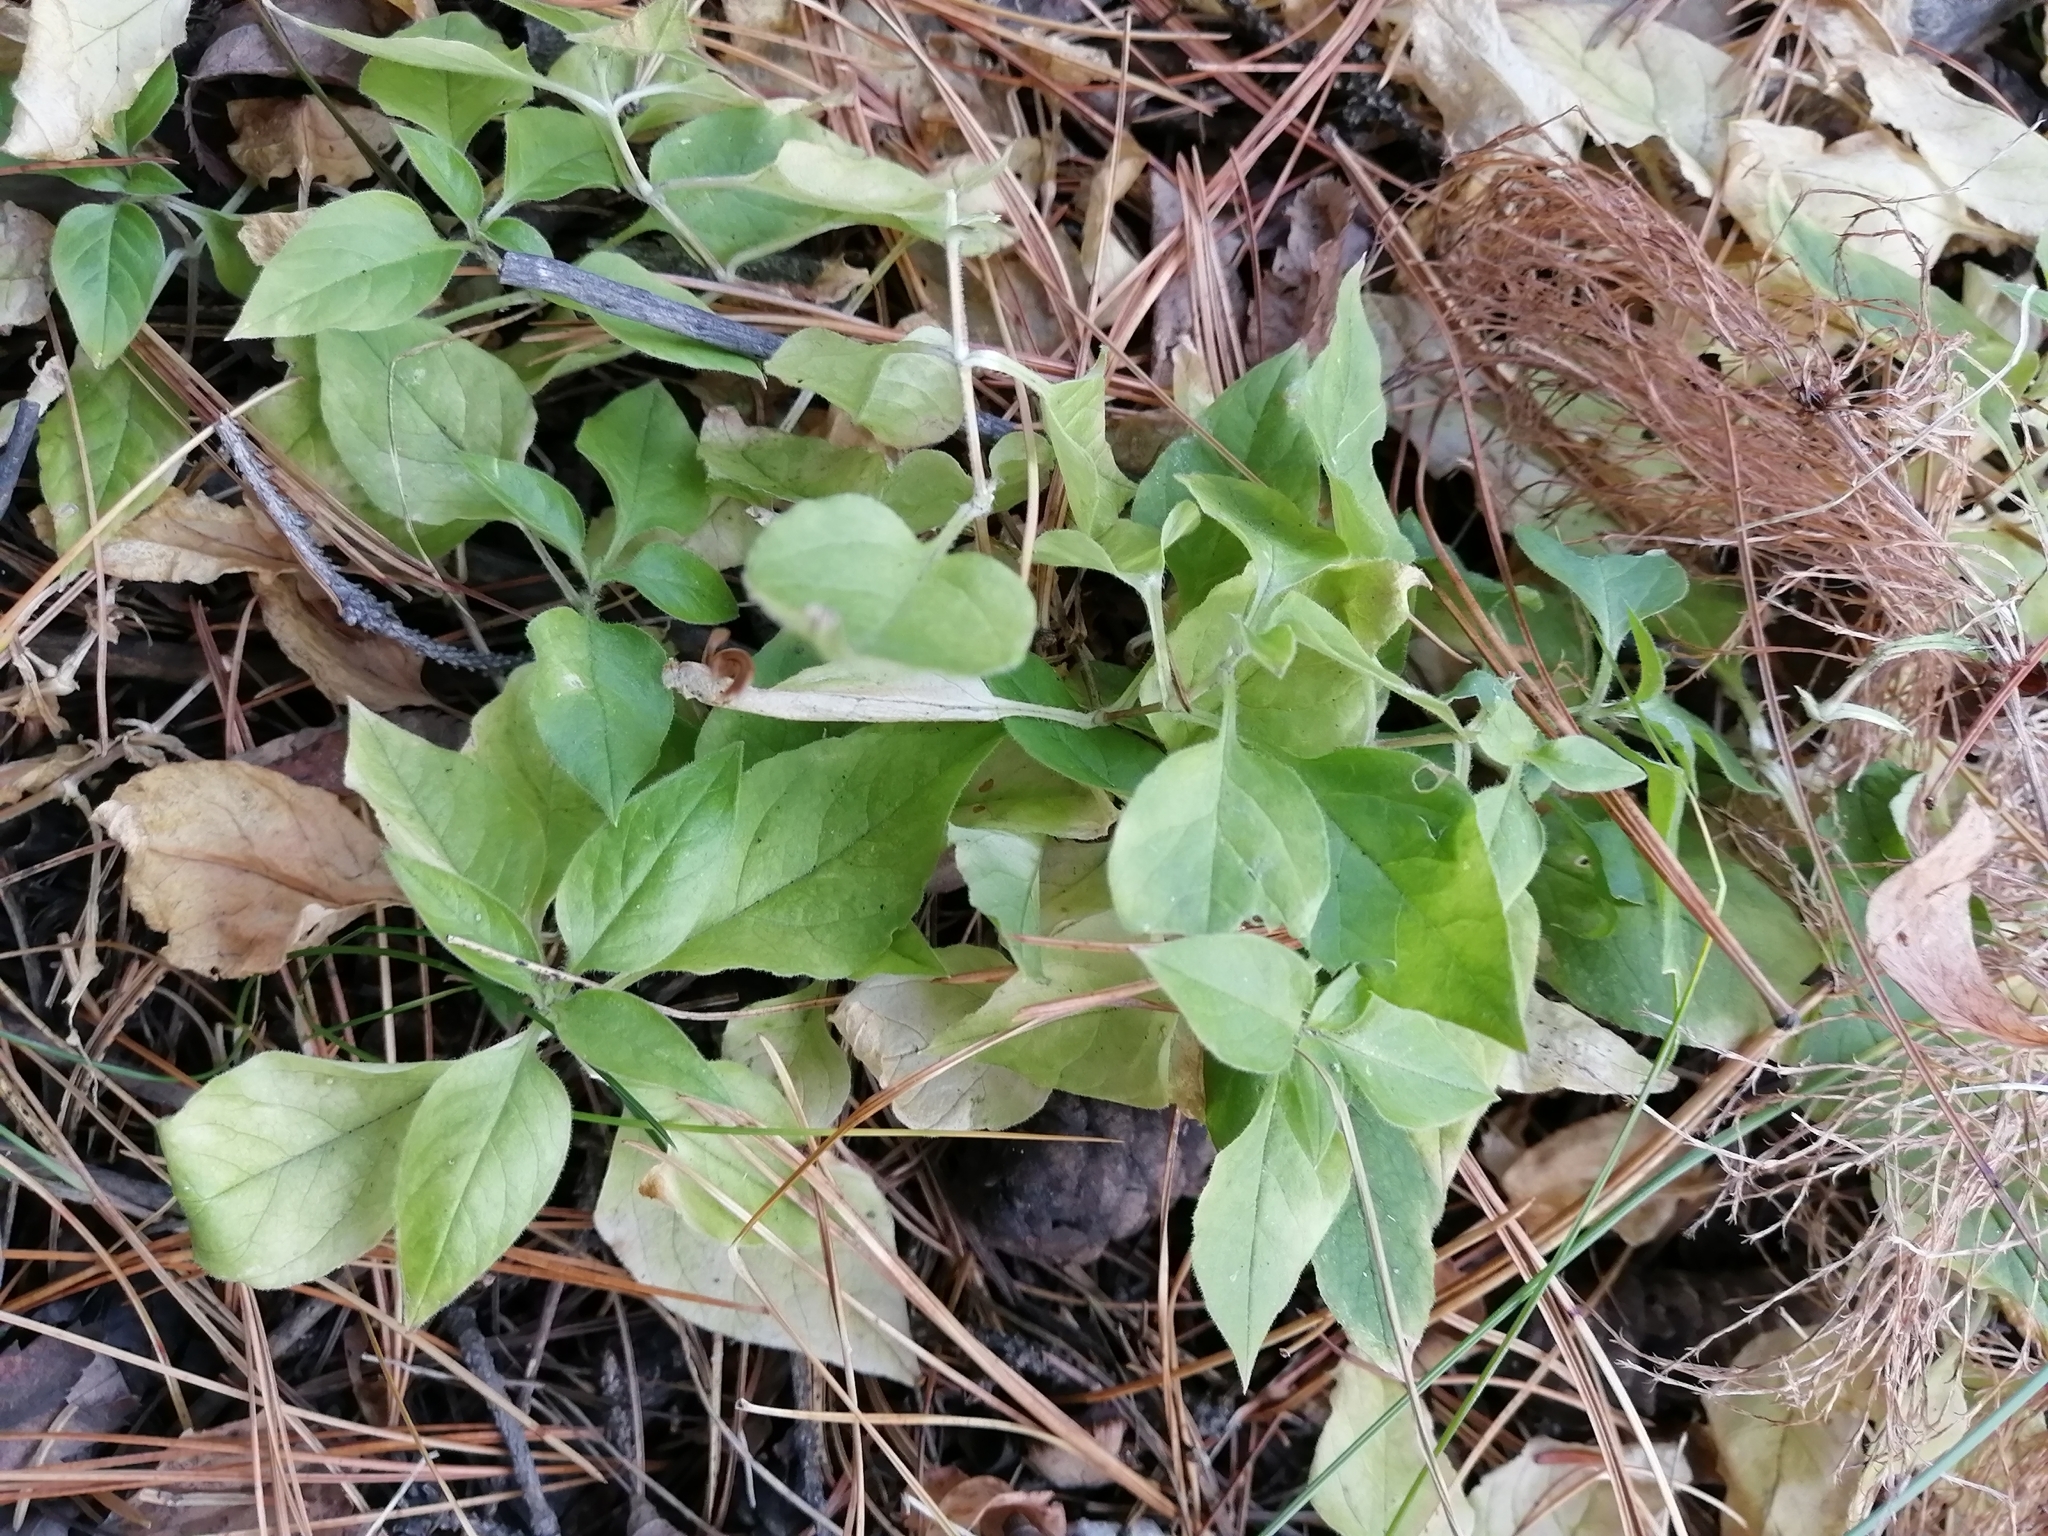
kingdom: Plantae
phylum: Tracheophyta
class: Magnoliopsida
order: Caryophyllales
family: Caryophyllaceae
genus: Stellaria
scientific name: Stellaria bungeana
